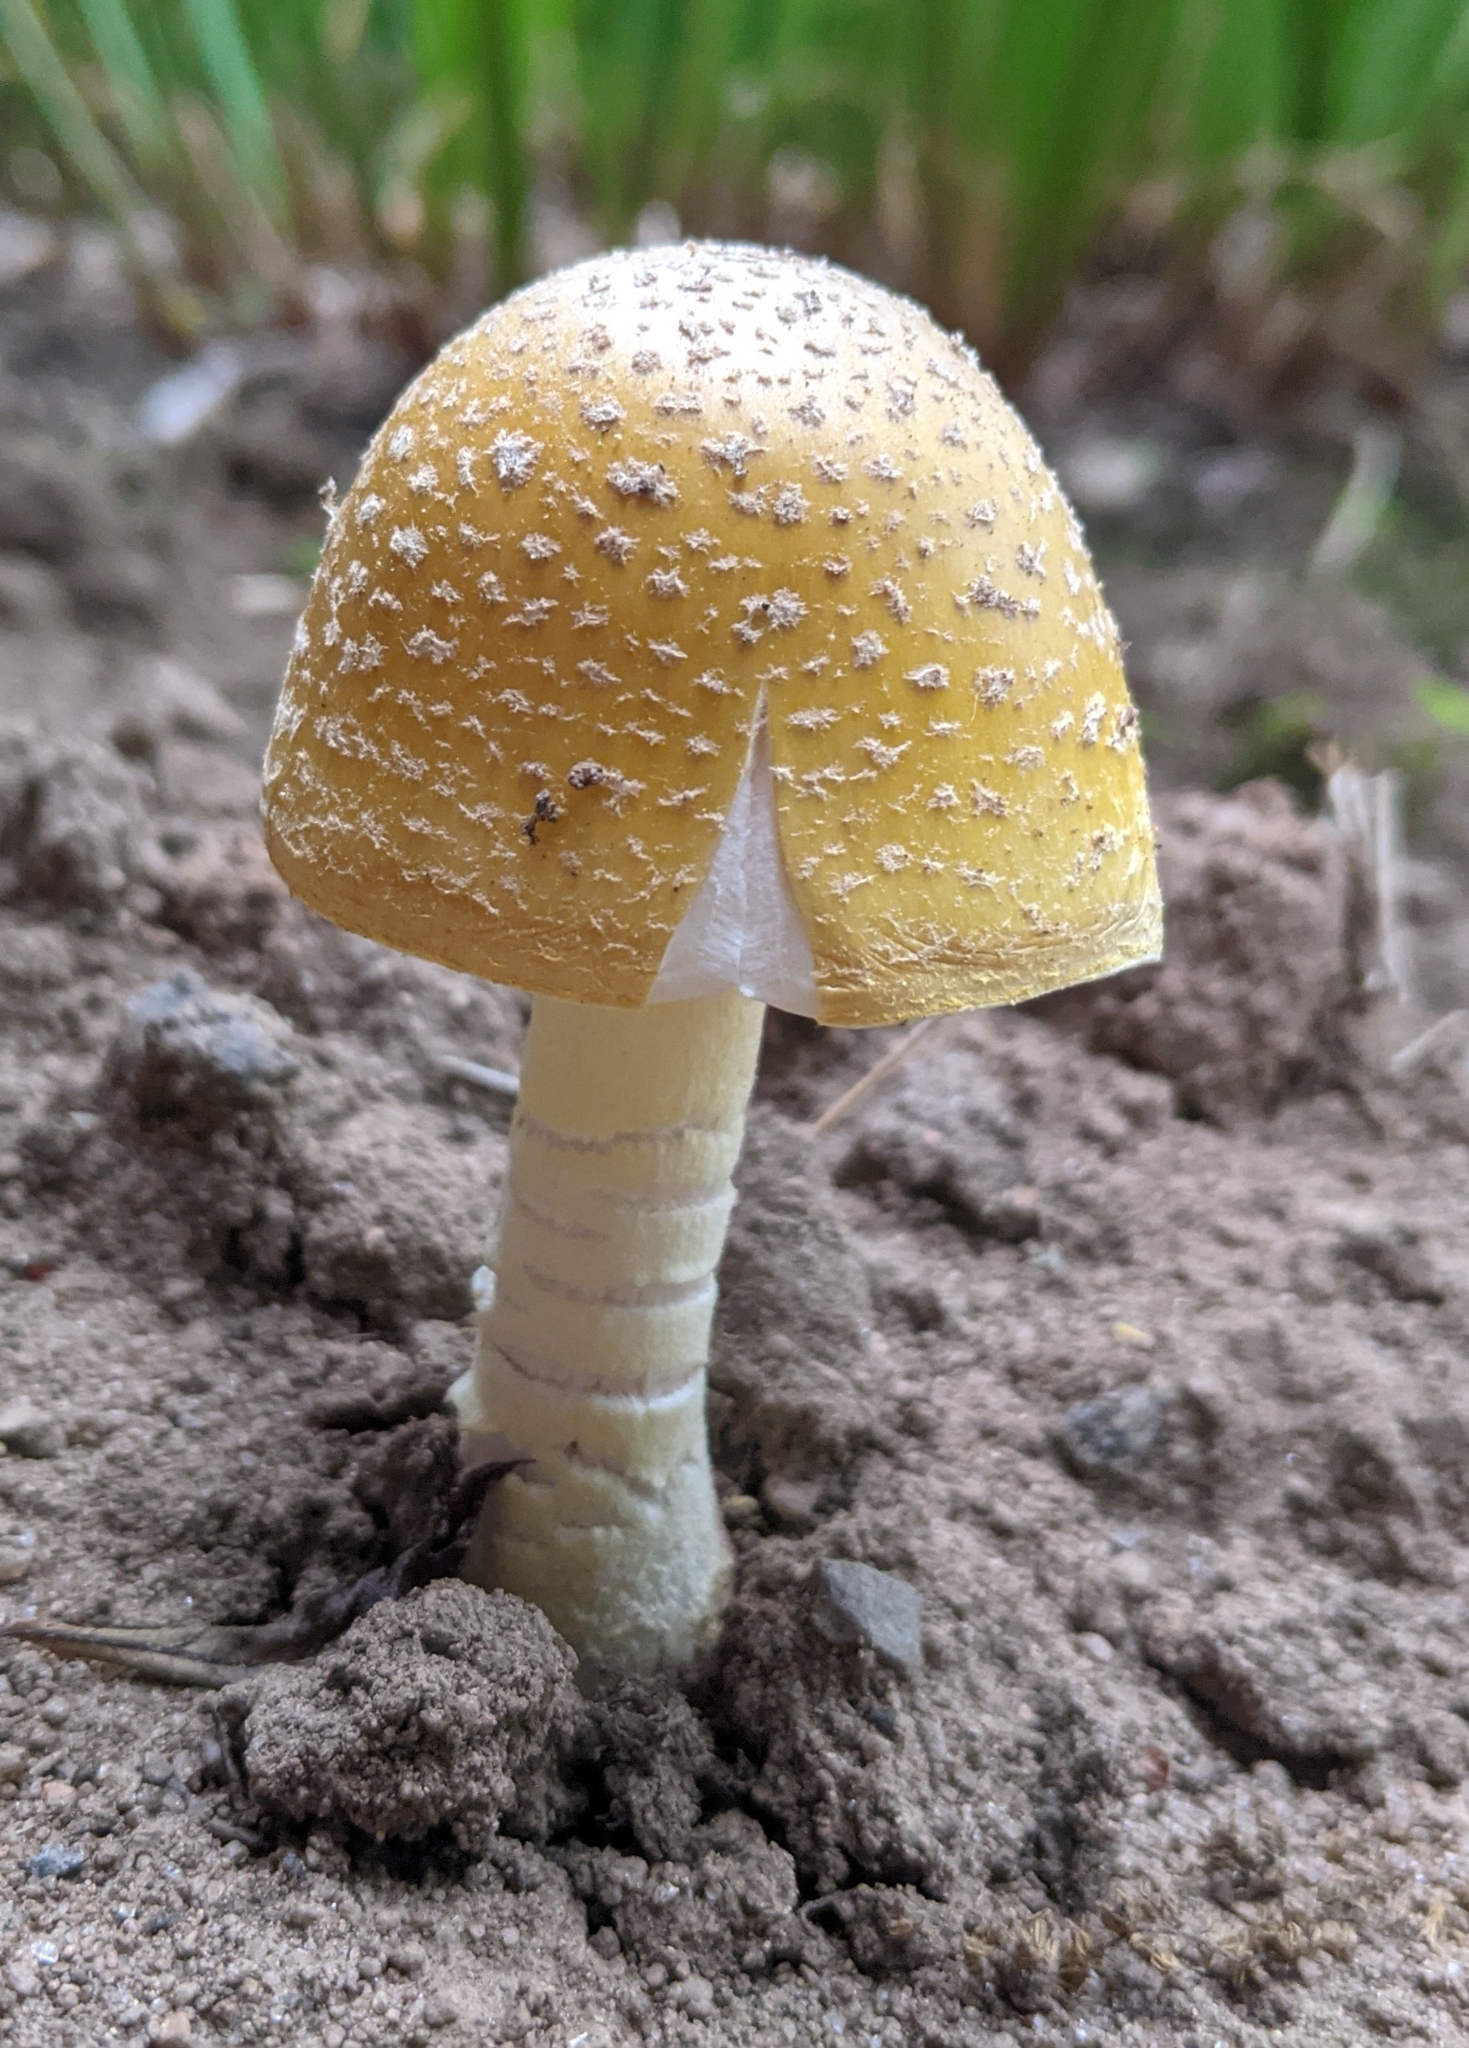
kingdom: Fungi
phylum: Basidiomycota
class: Agaricomycetes
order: Agaricales
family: Amanitaceae
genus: Amanita
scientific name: Amanita muscaria
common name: Fly agaric
